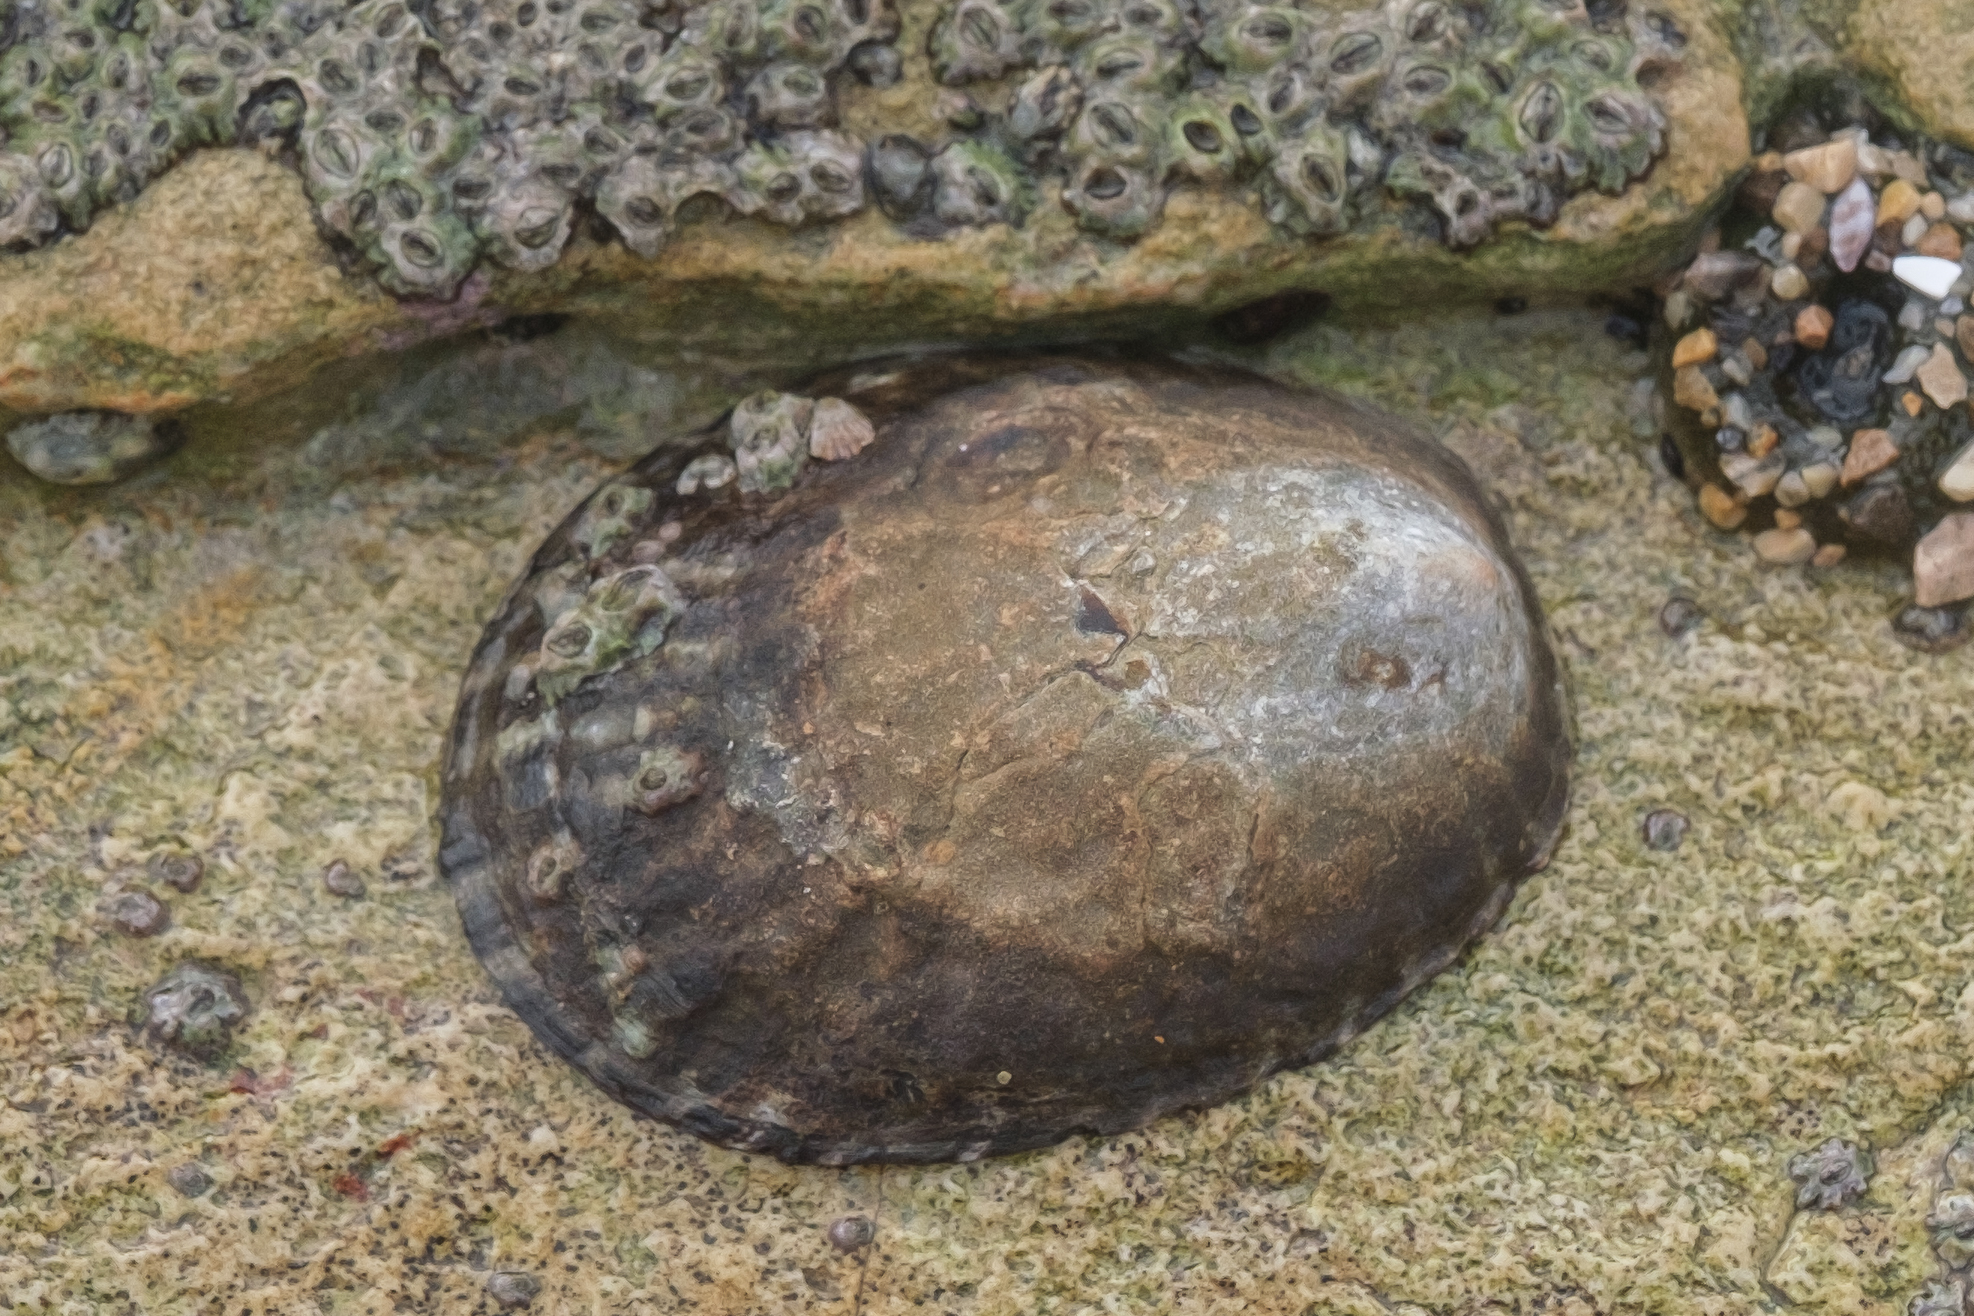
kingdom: Animalia
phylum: Mollusca
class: Gastropoda
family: Lottiidae
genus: Lottia
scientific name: Lottia gigantea
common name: Owl limpet
